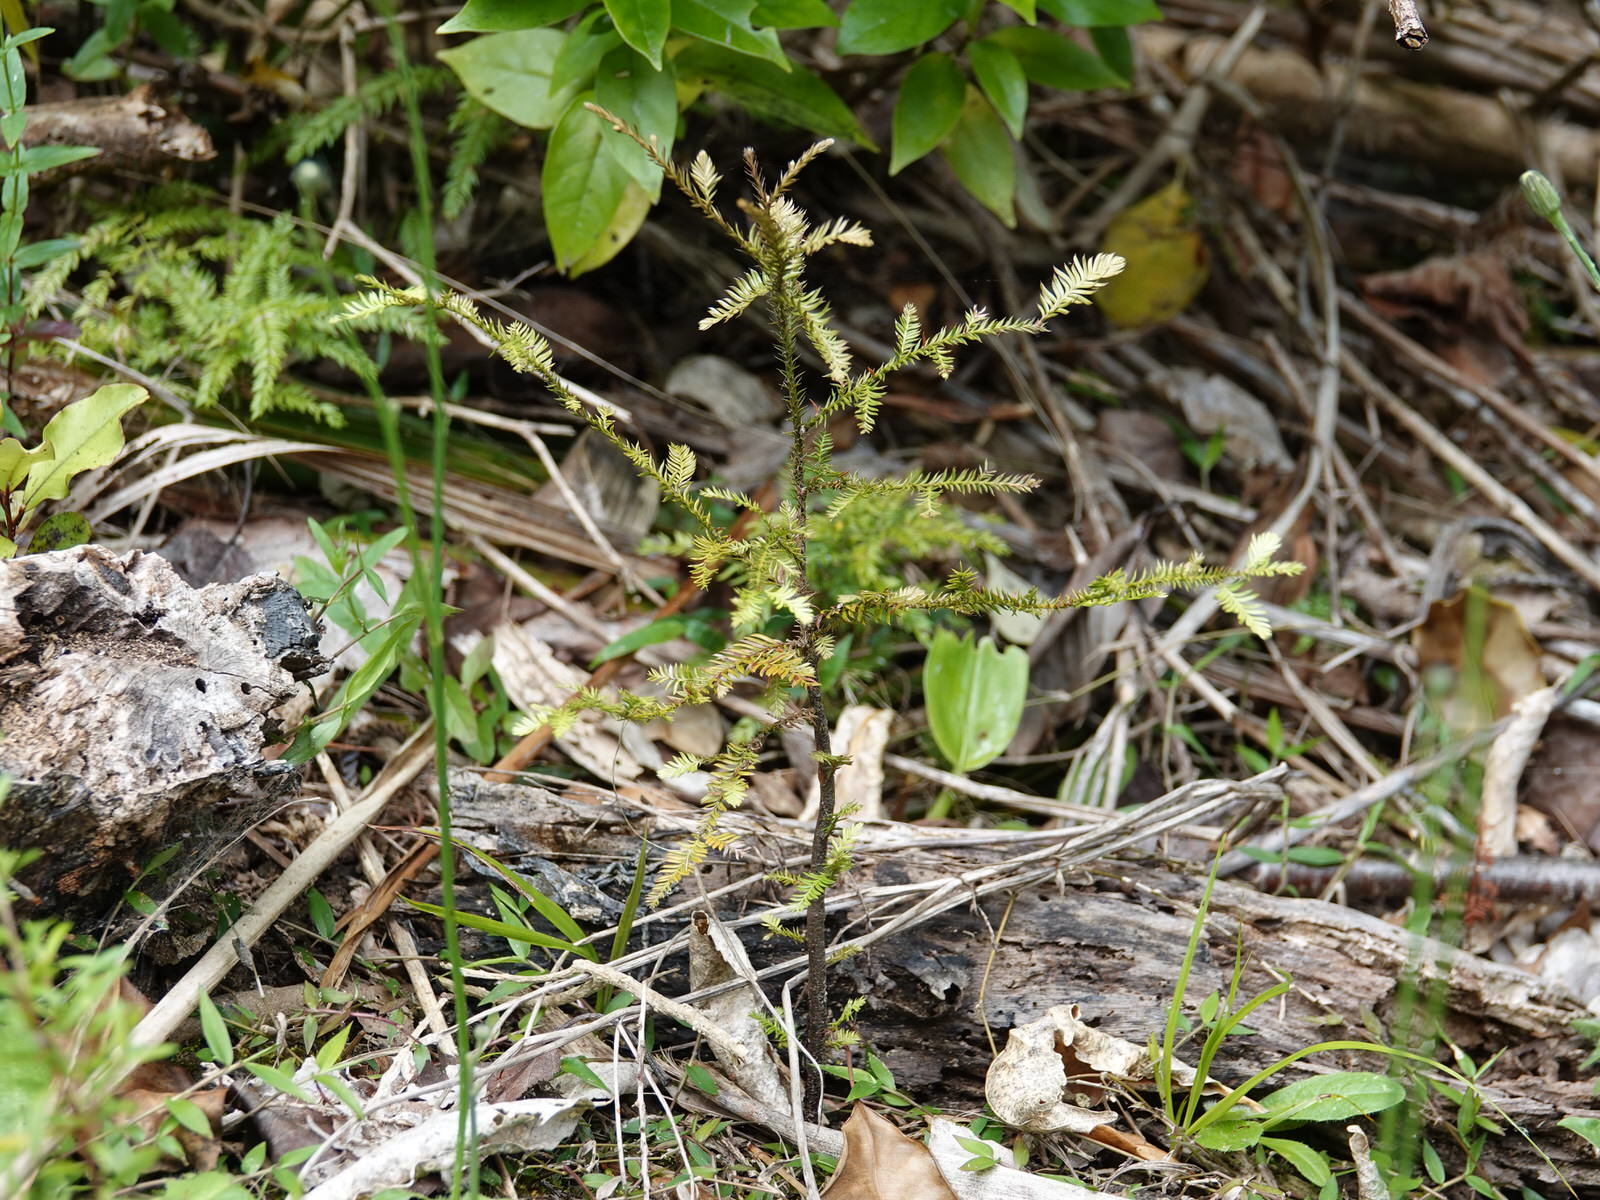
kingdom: Plantae
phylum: Tracheophyta
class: Pinopsida
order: Pinales
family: Podocarpaceae
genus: Dacrycarpus
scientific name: Dacrycarpus dacrydioides
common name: White pine
